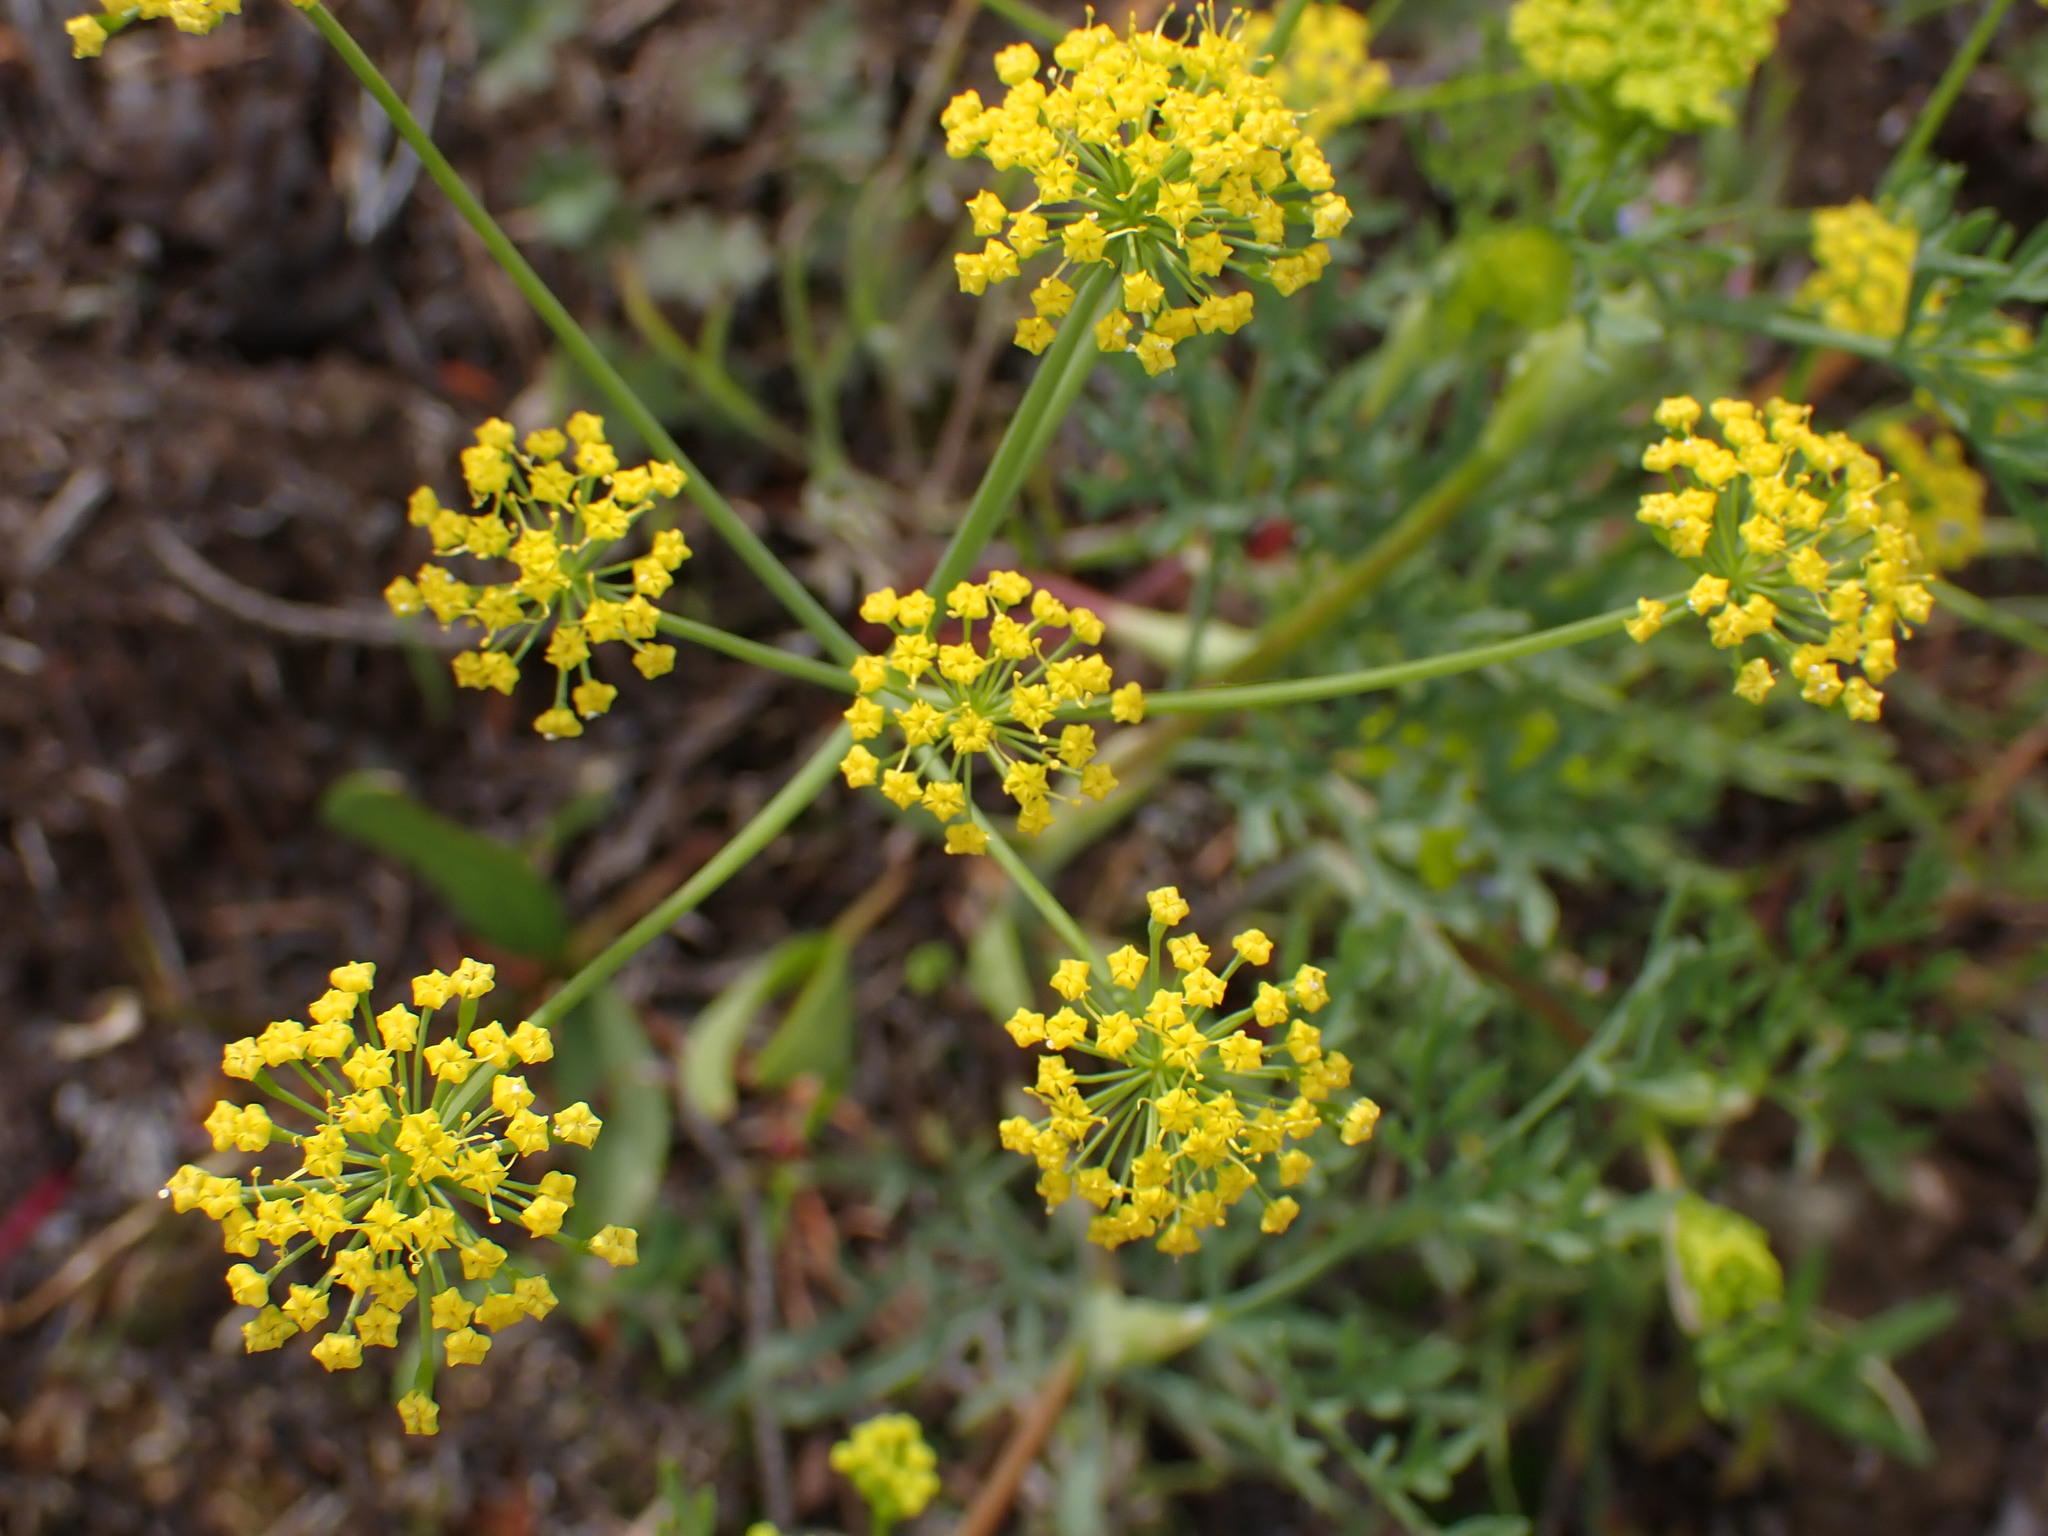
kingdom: Plantae
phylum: Tracheophyta
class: Magnoliopsida
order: Apiales
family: Apiaceae
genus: Lomatium
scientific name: Lomatium ambiguum
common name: Lacy lomatium
